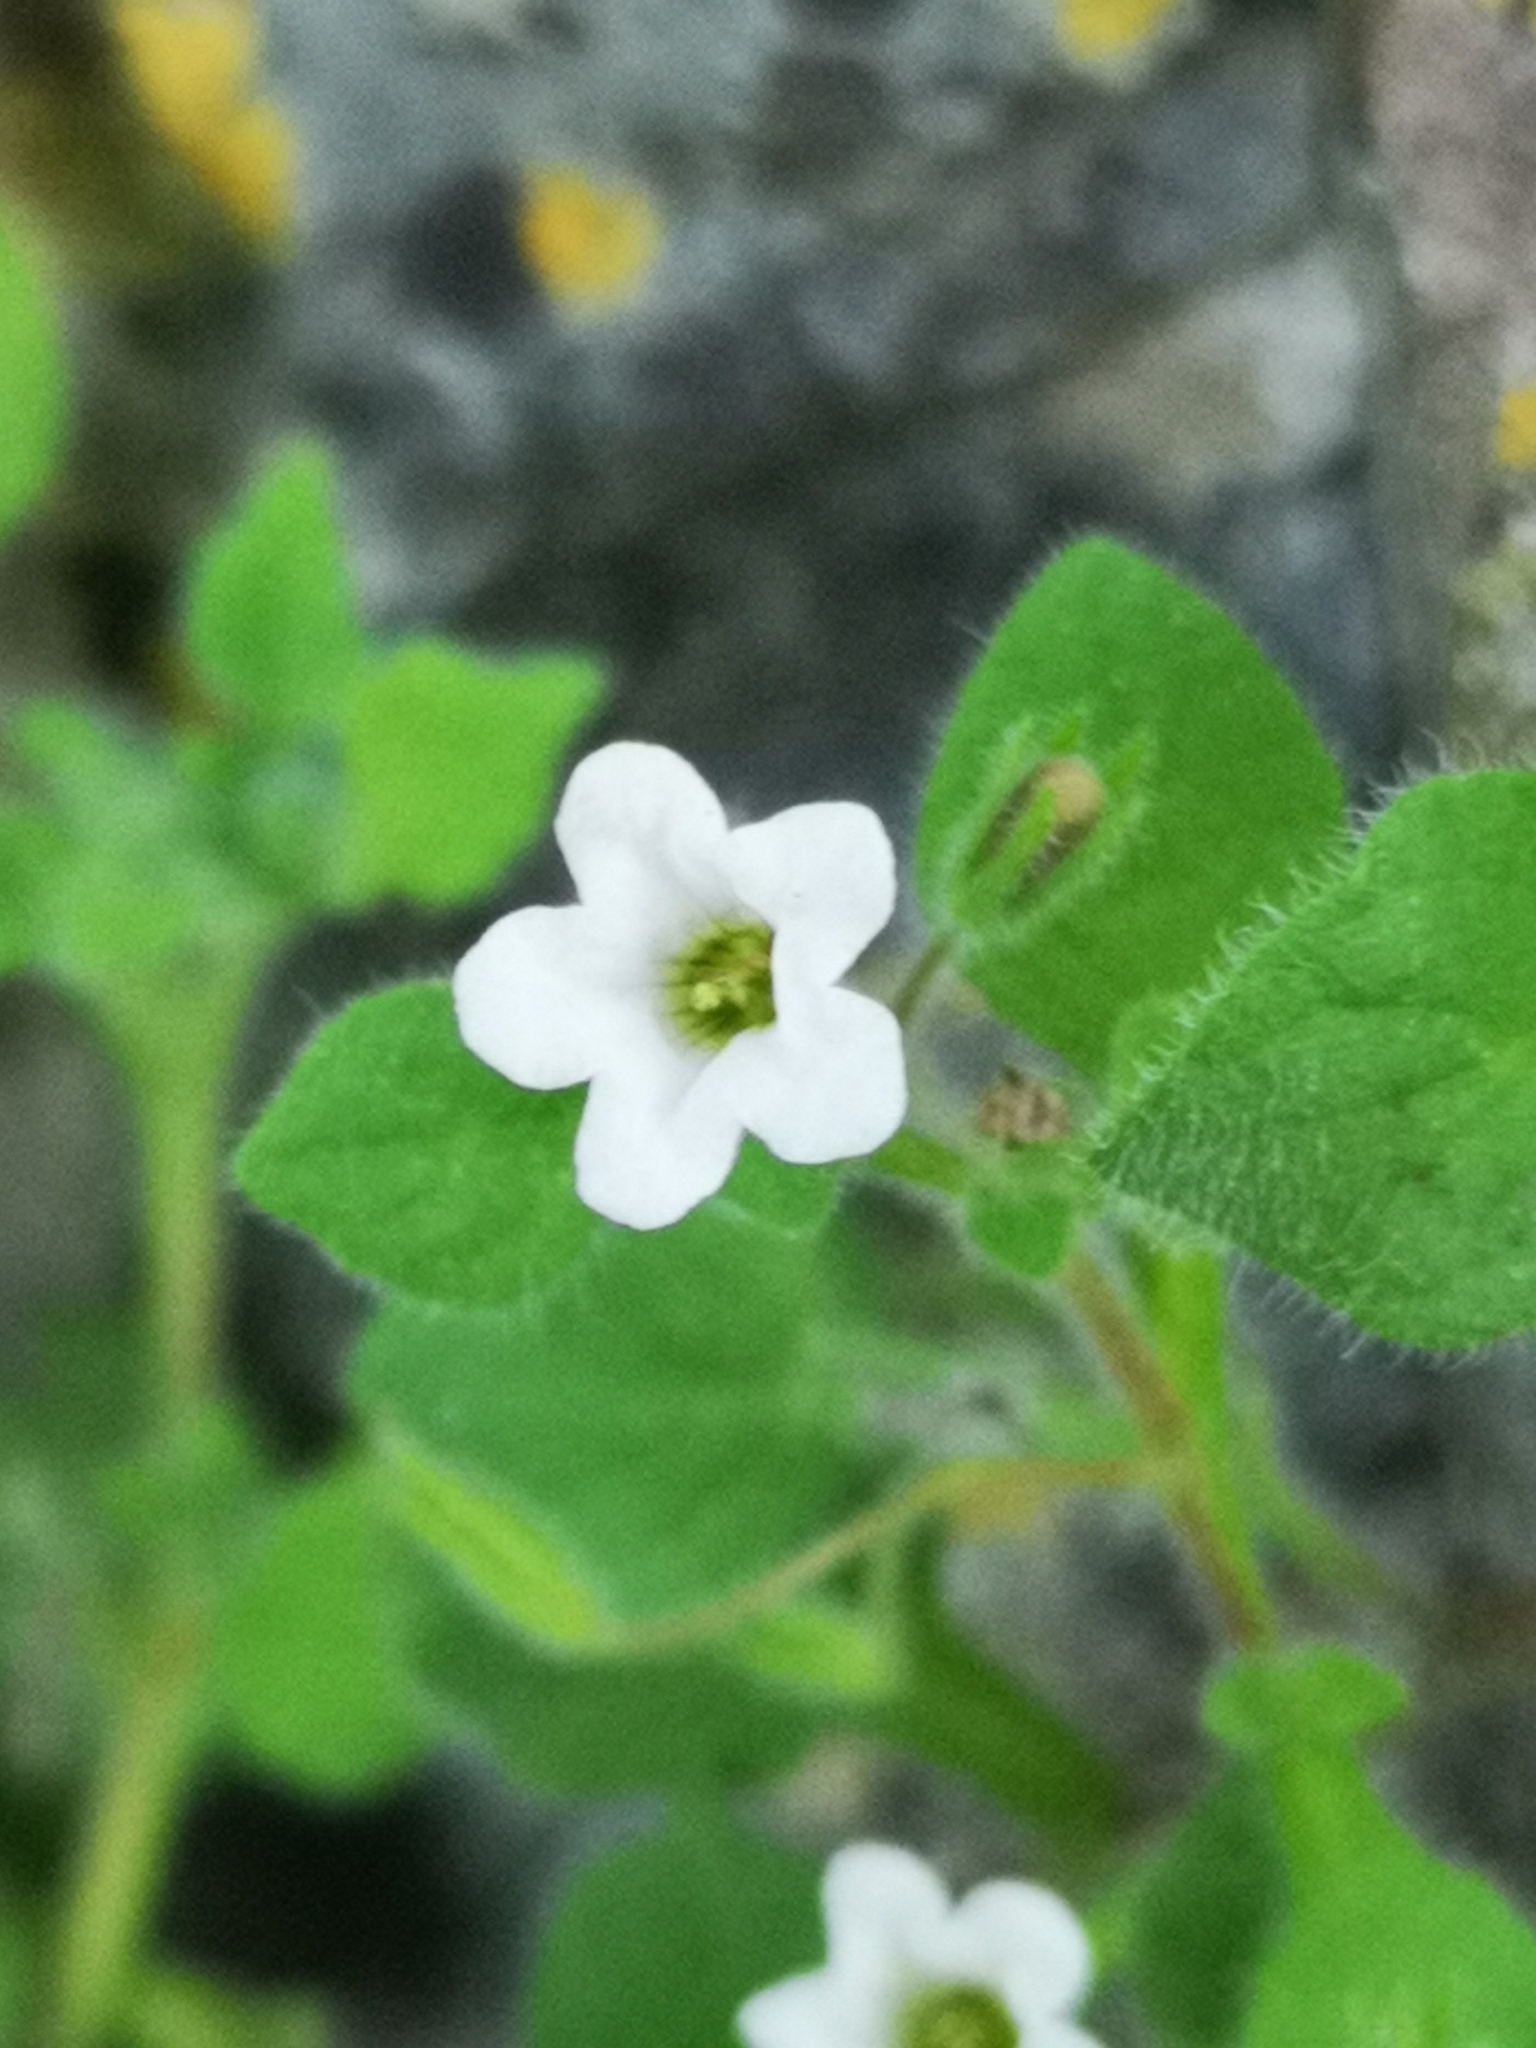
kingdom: Plantae
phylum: Tracheophyta
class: Magnoliopsida
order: Boraginales
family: Namaceae
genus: Nama
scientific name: Nama jamaicensis
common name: Jamaicanweed
